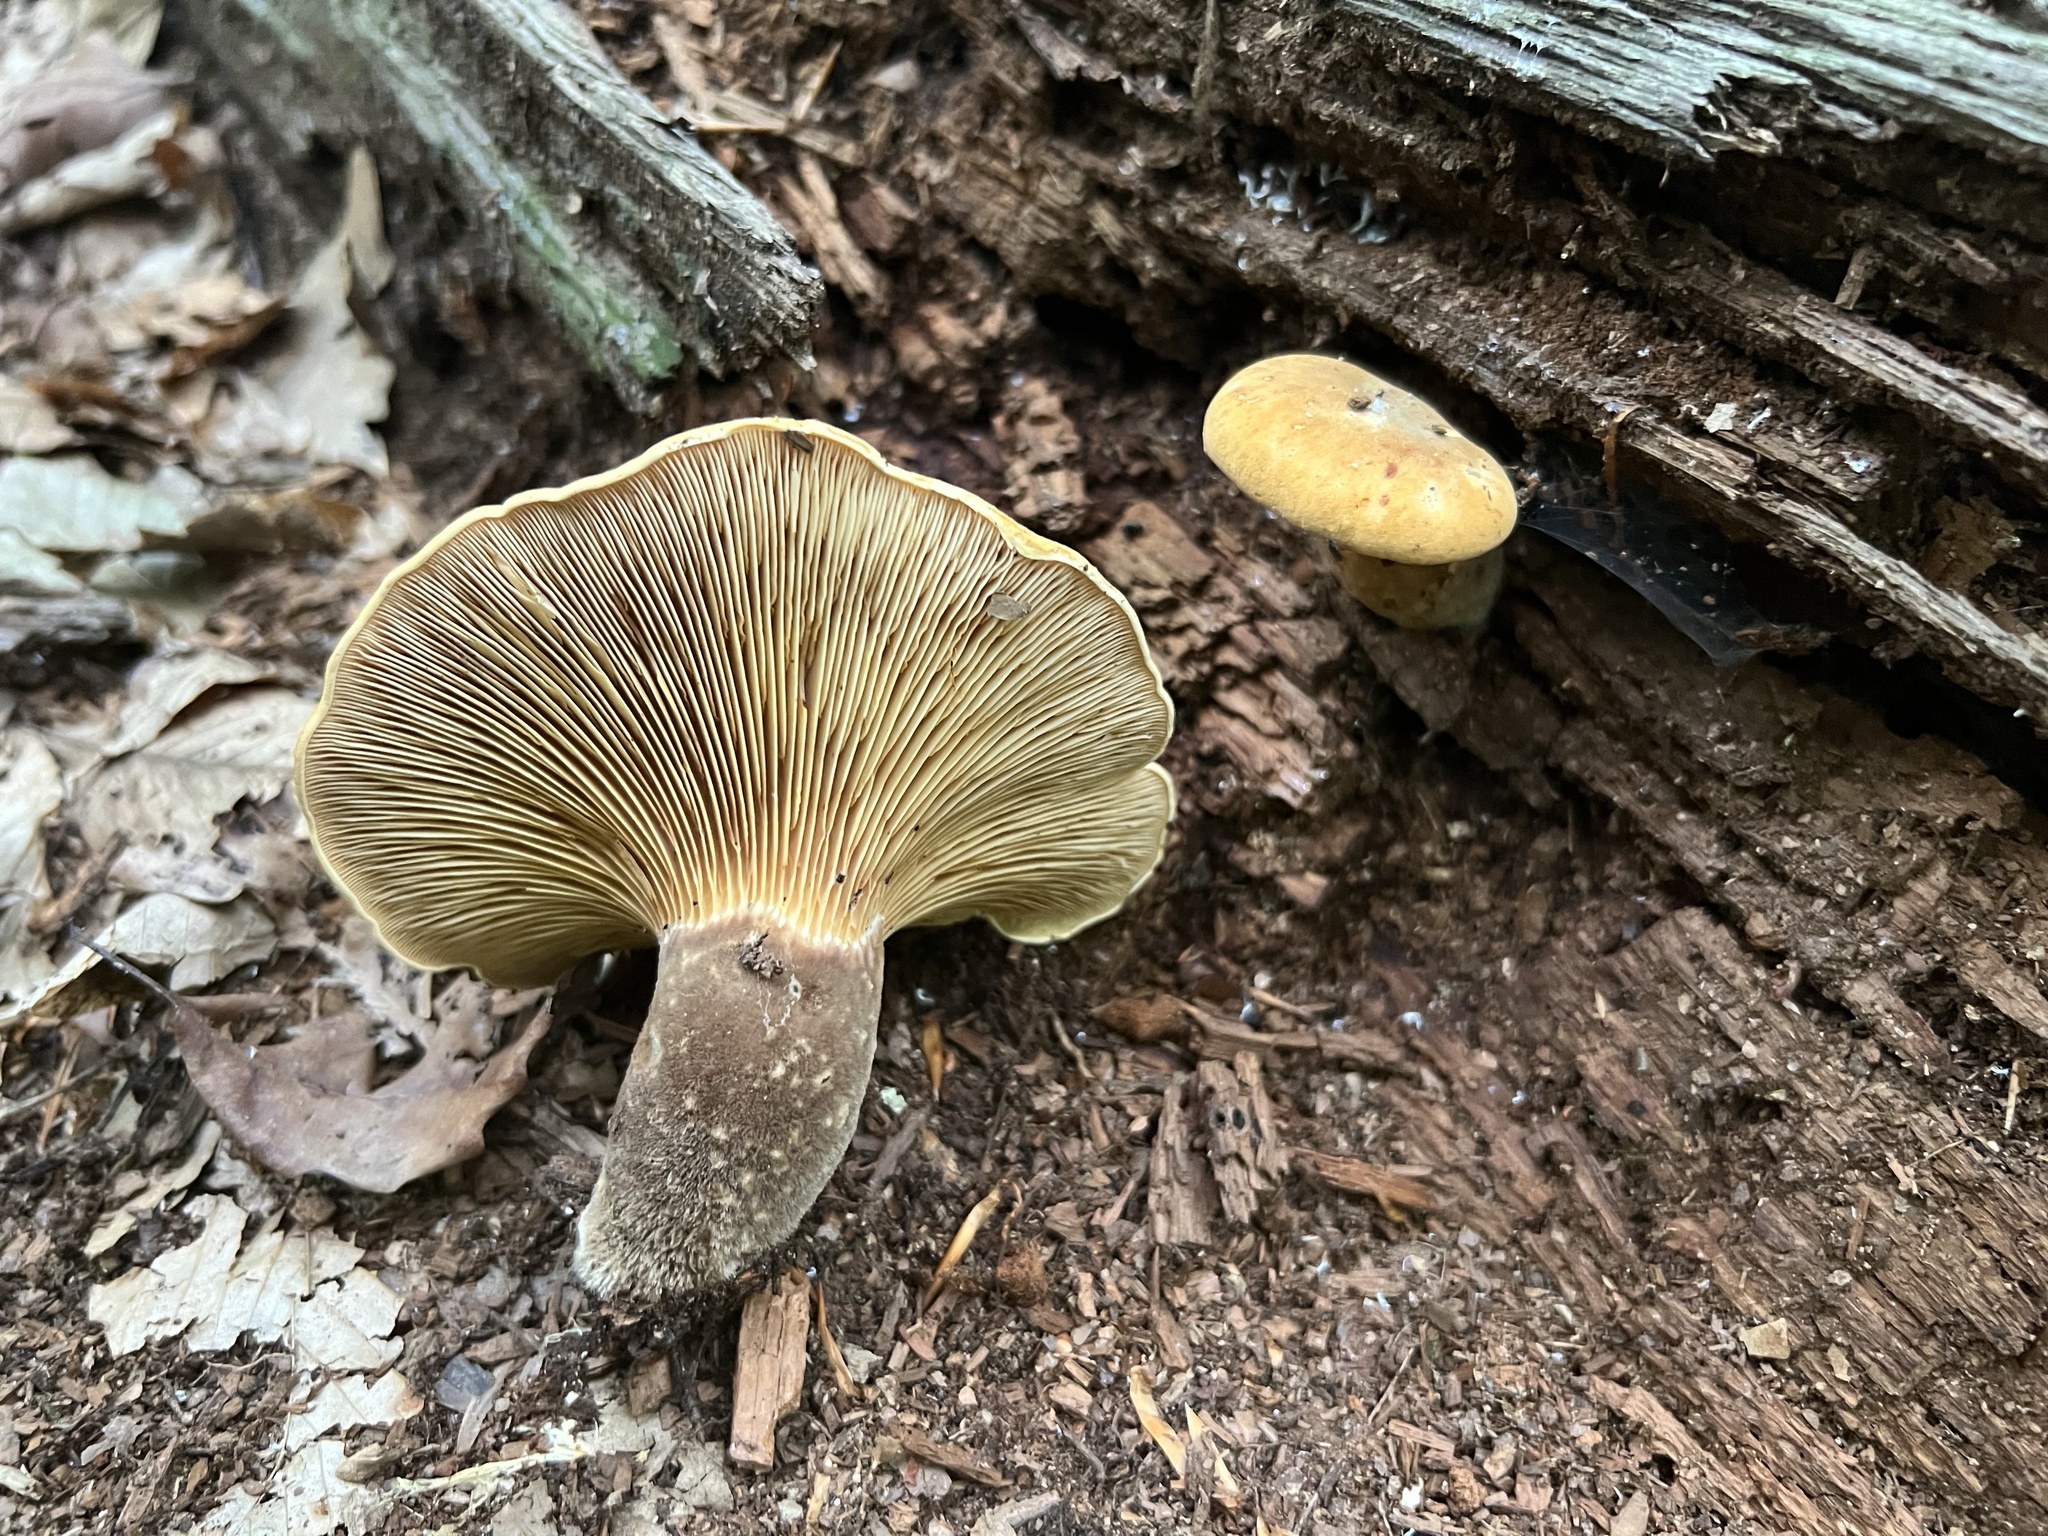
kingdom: Fungi
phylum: Basidiomycota
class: Agaricomycetes
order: Boletales
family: Tapinellaceae
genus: Tapinella
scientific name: Tapinella atrotomentosa
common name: Velvet rollrim
